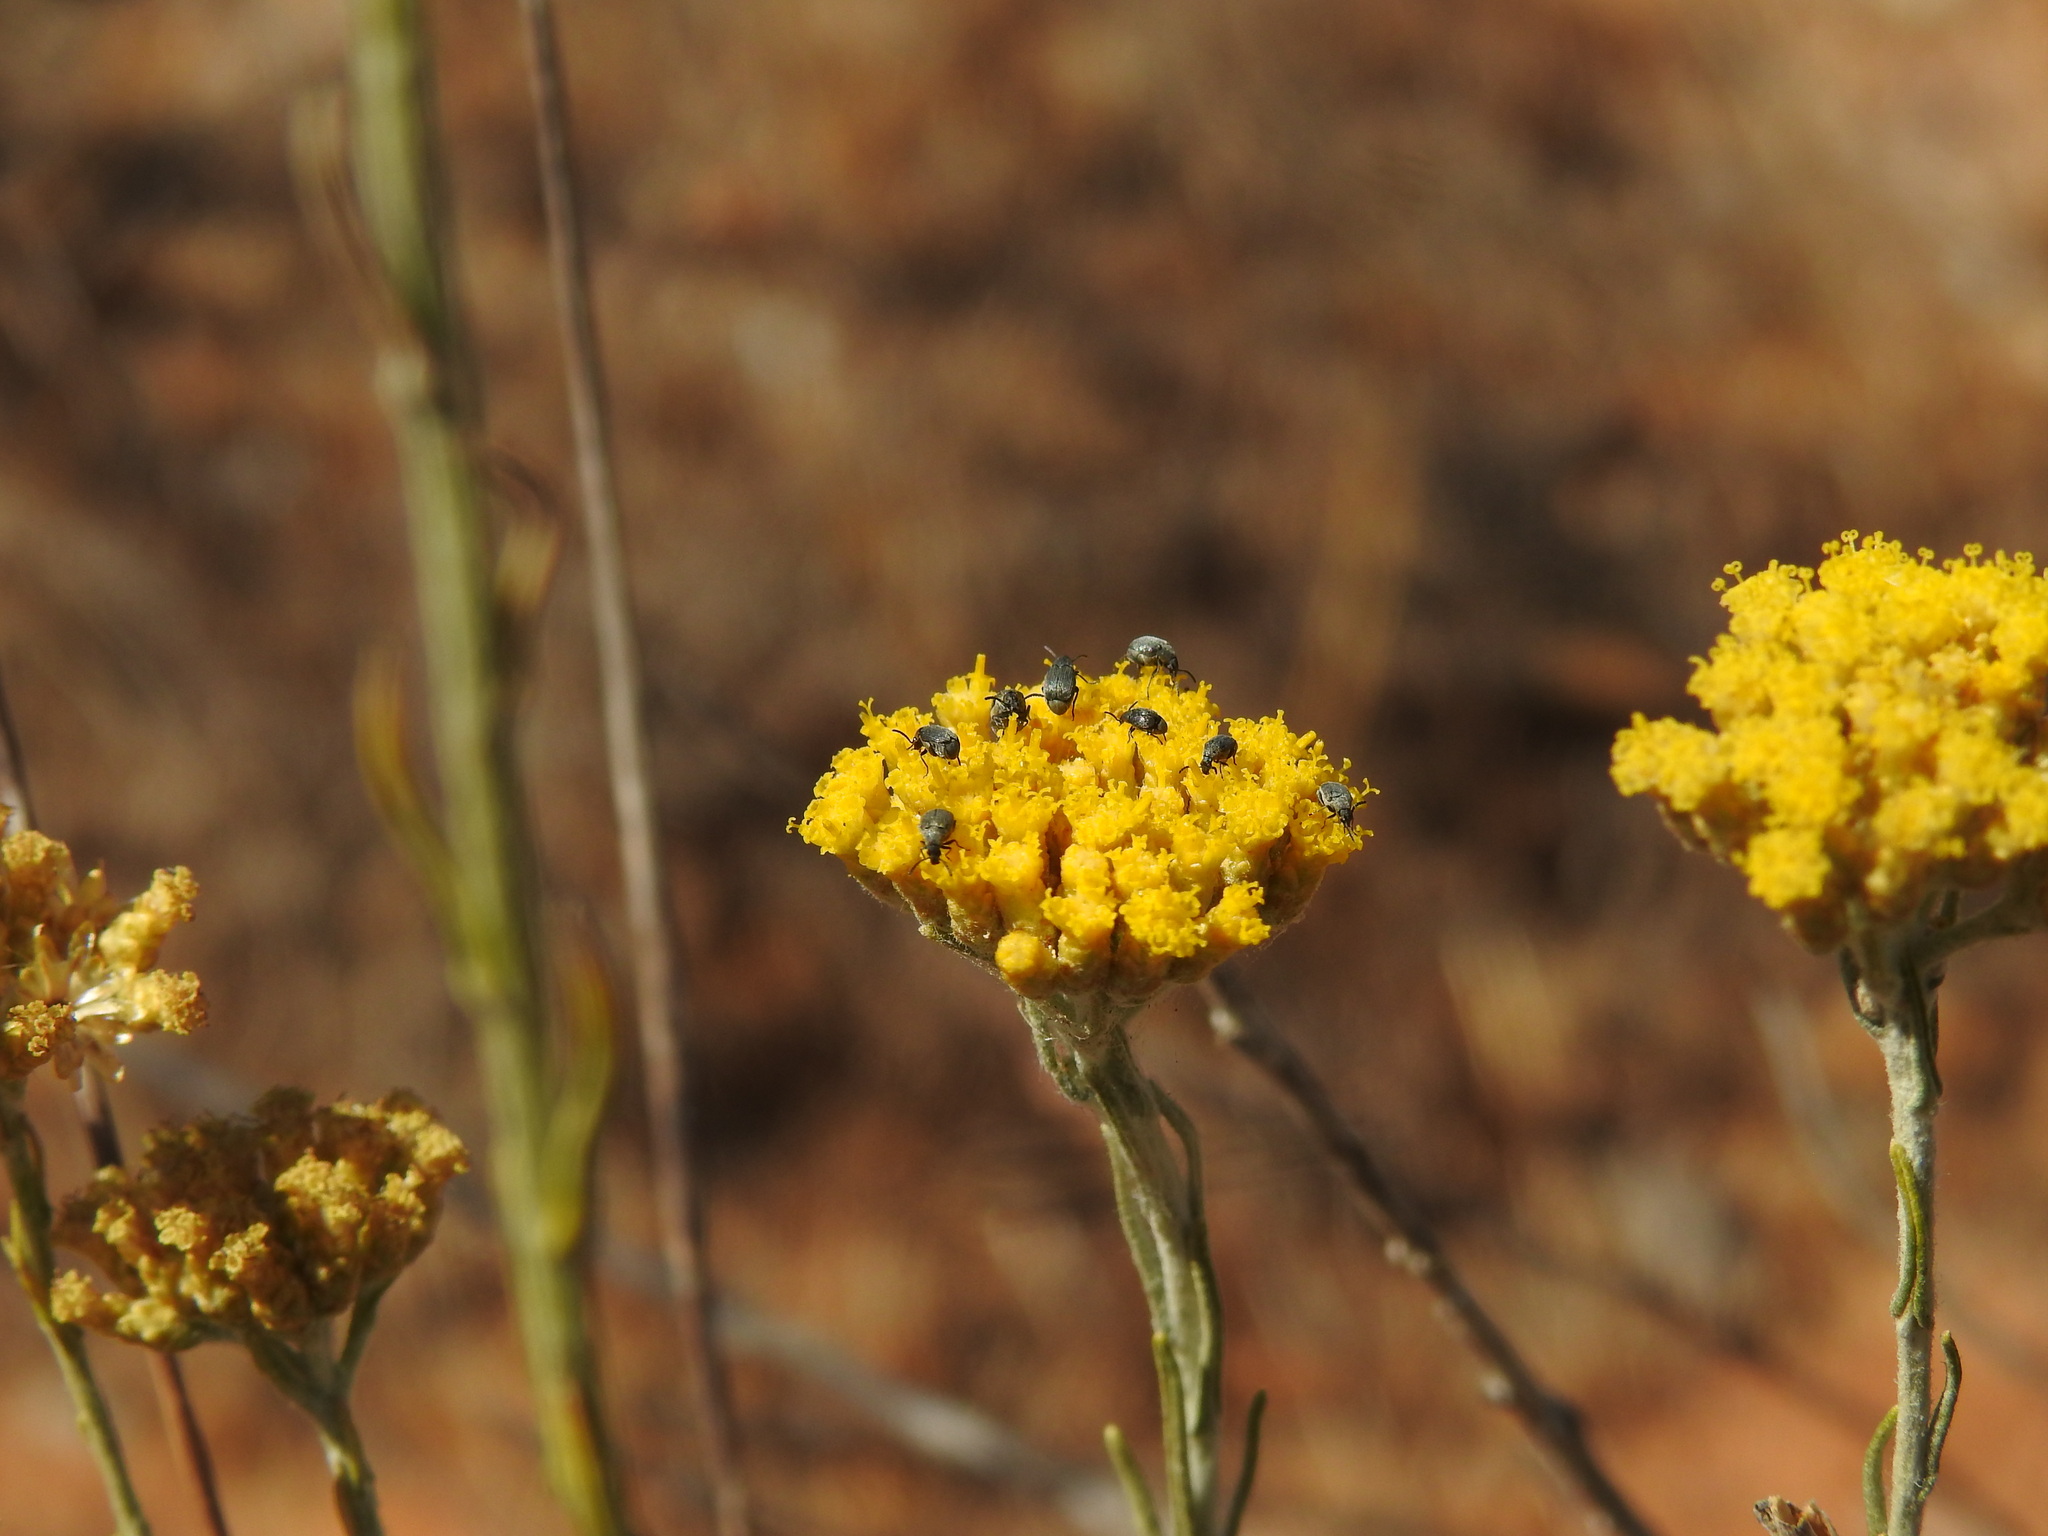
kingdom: Plantae
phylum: Tracheophyta
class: Magnoliopsida
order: Asterales
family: Asteraceae
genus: Helichrysum
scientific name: Helichrysum serotinum
